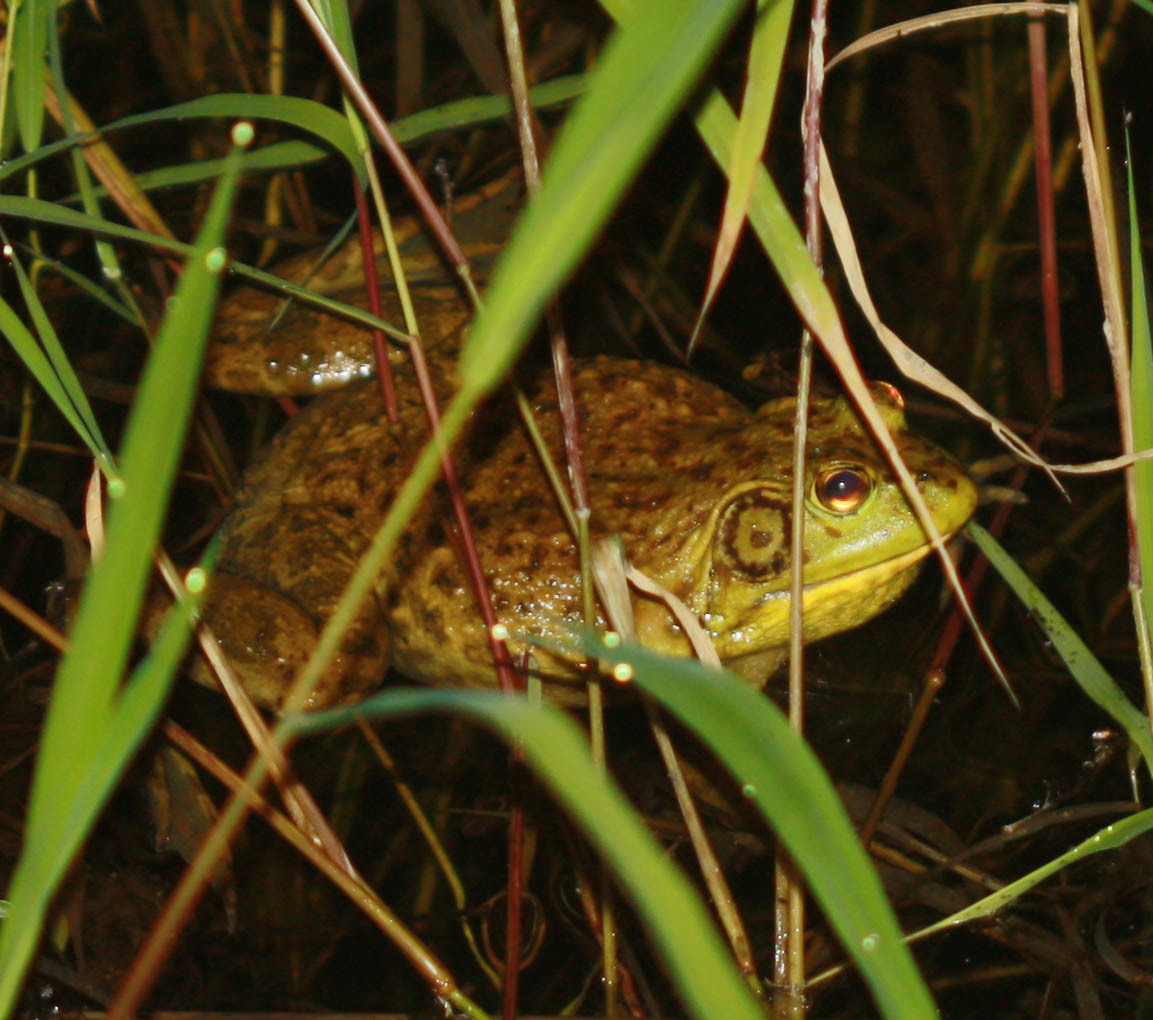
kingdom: Animalia
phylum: Chordata
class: Amphibia
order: Anura
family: Ranidae
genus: Lithobates
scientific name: Lithobates catesbeianus
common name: American bullfrog
